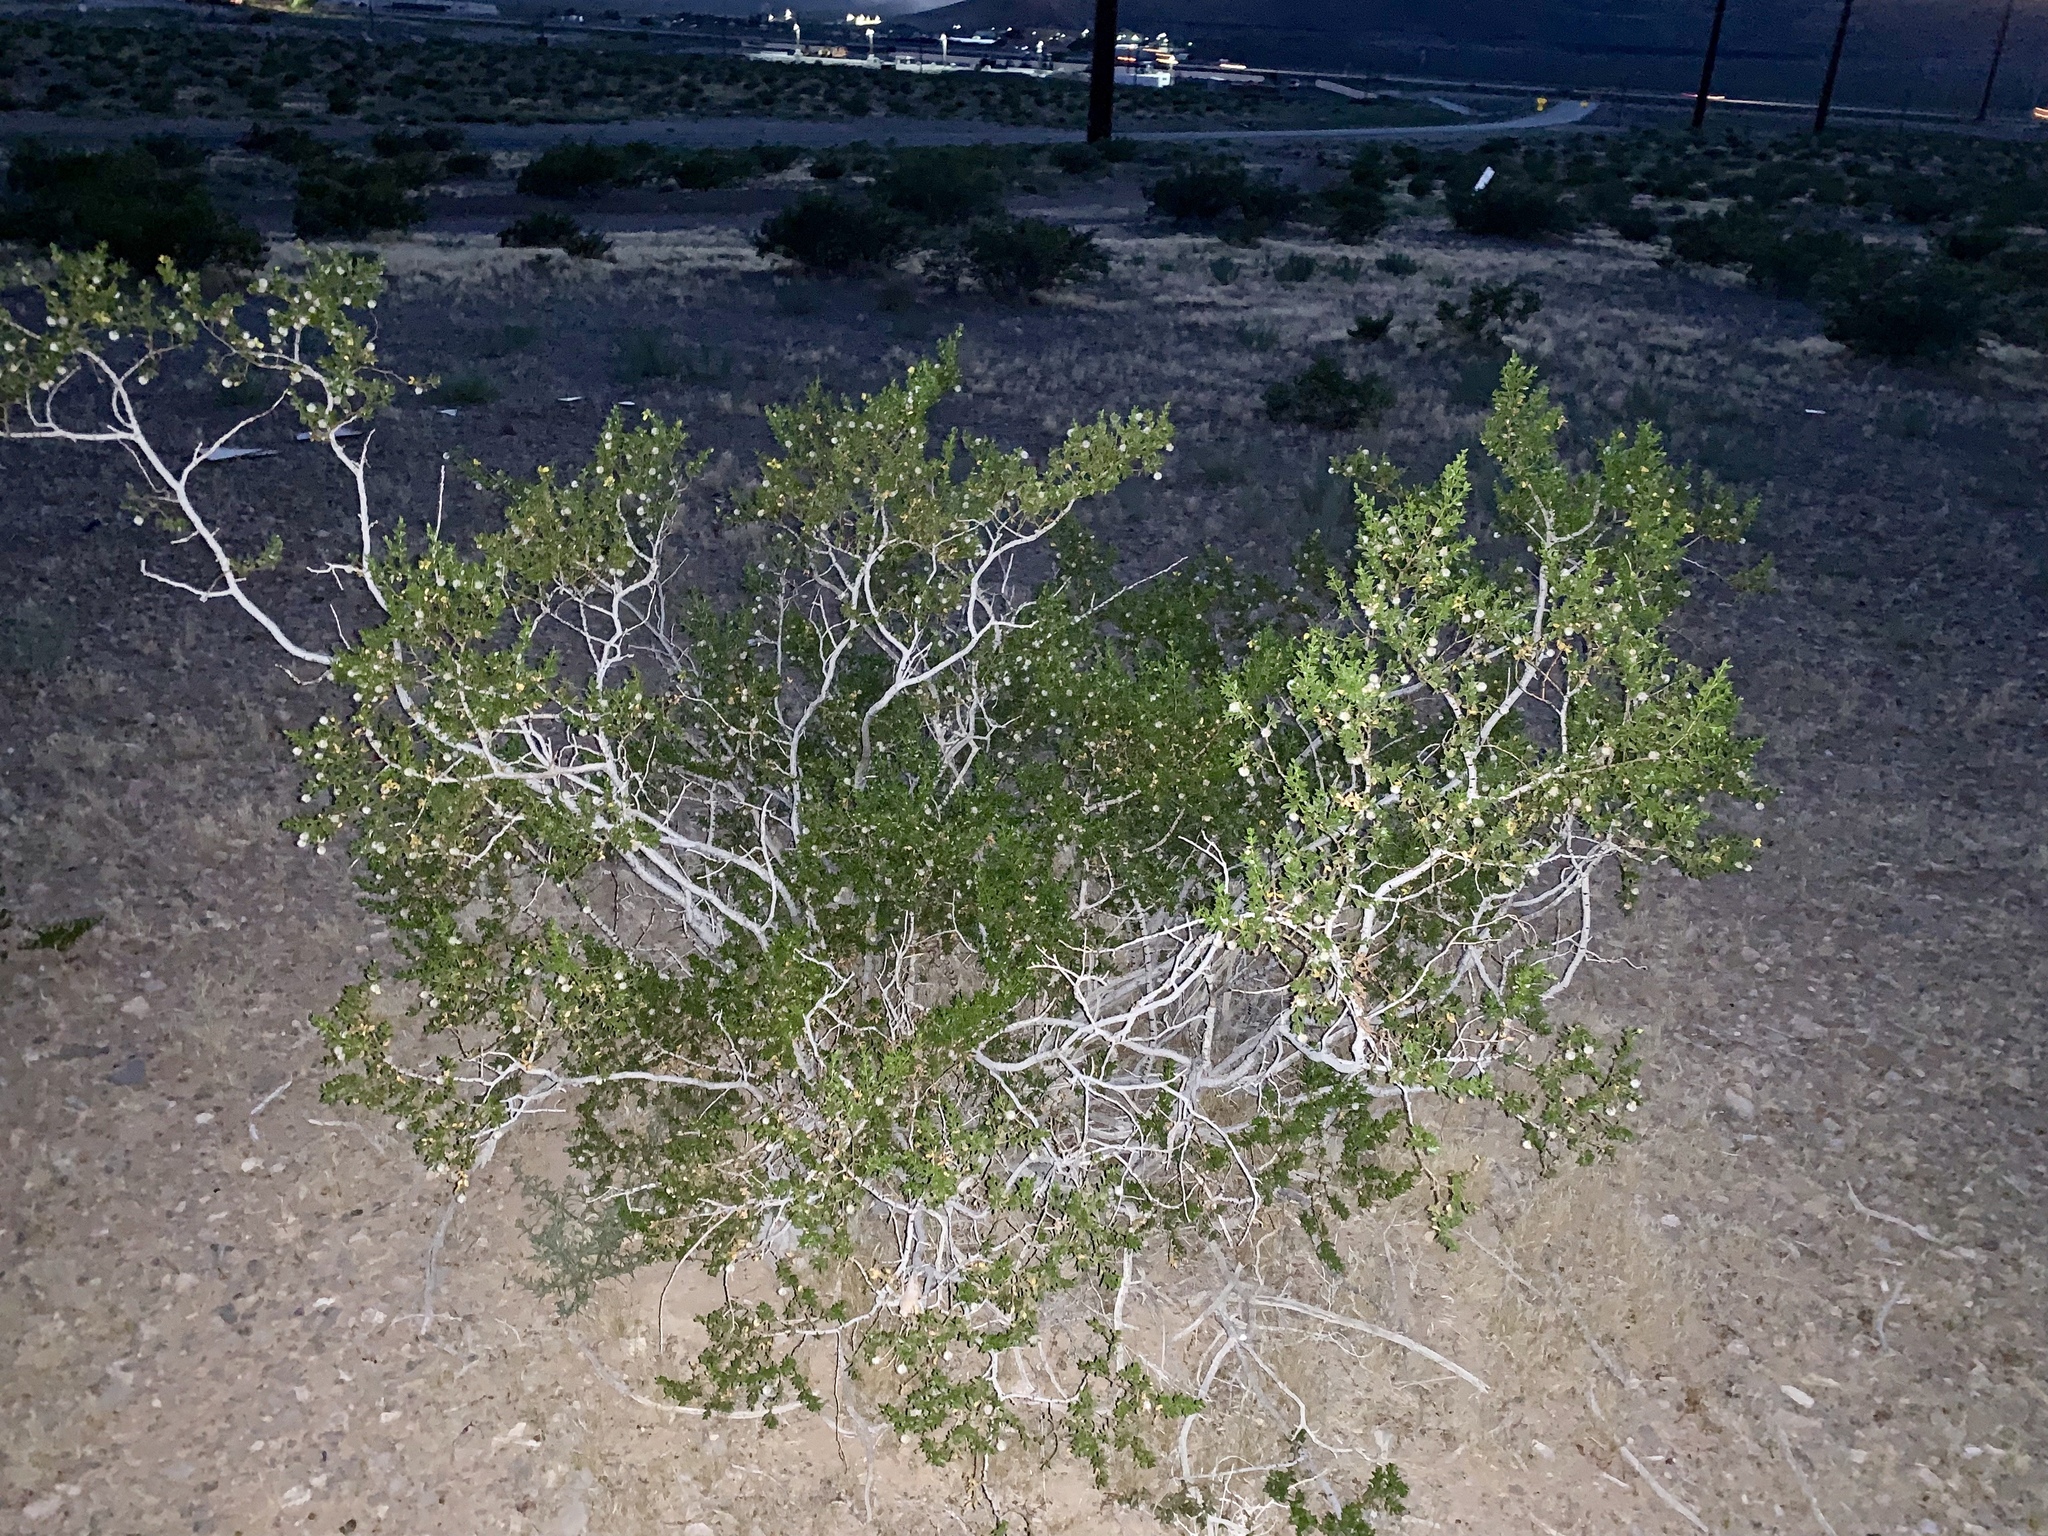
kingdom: Plantae
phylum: Tracheophyta
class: Magnoliopsida
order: Zygophyllales
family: Zygophyllaceae
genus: Larrea
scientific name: Larrea tridentata
